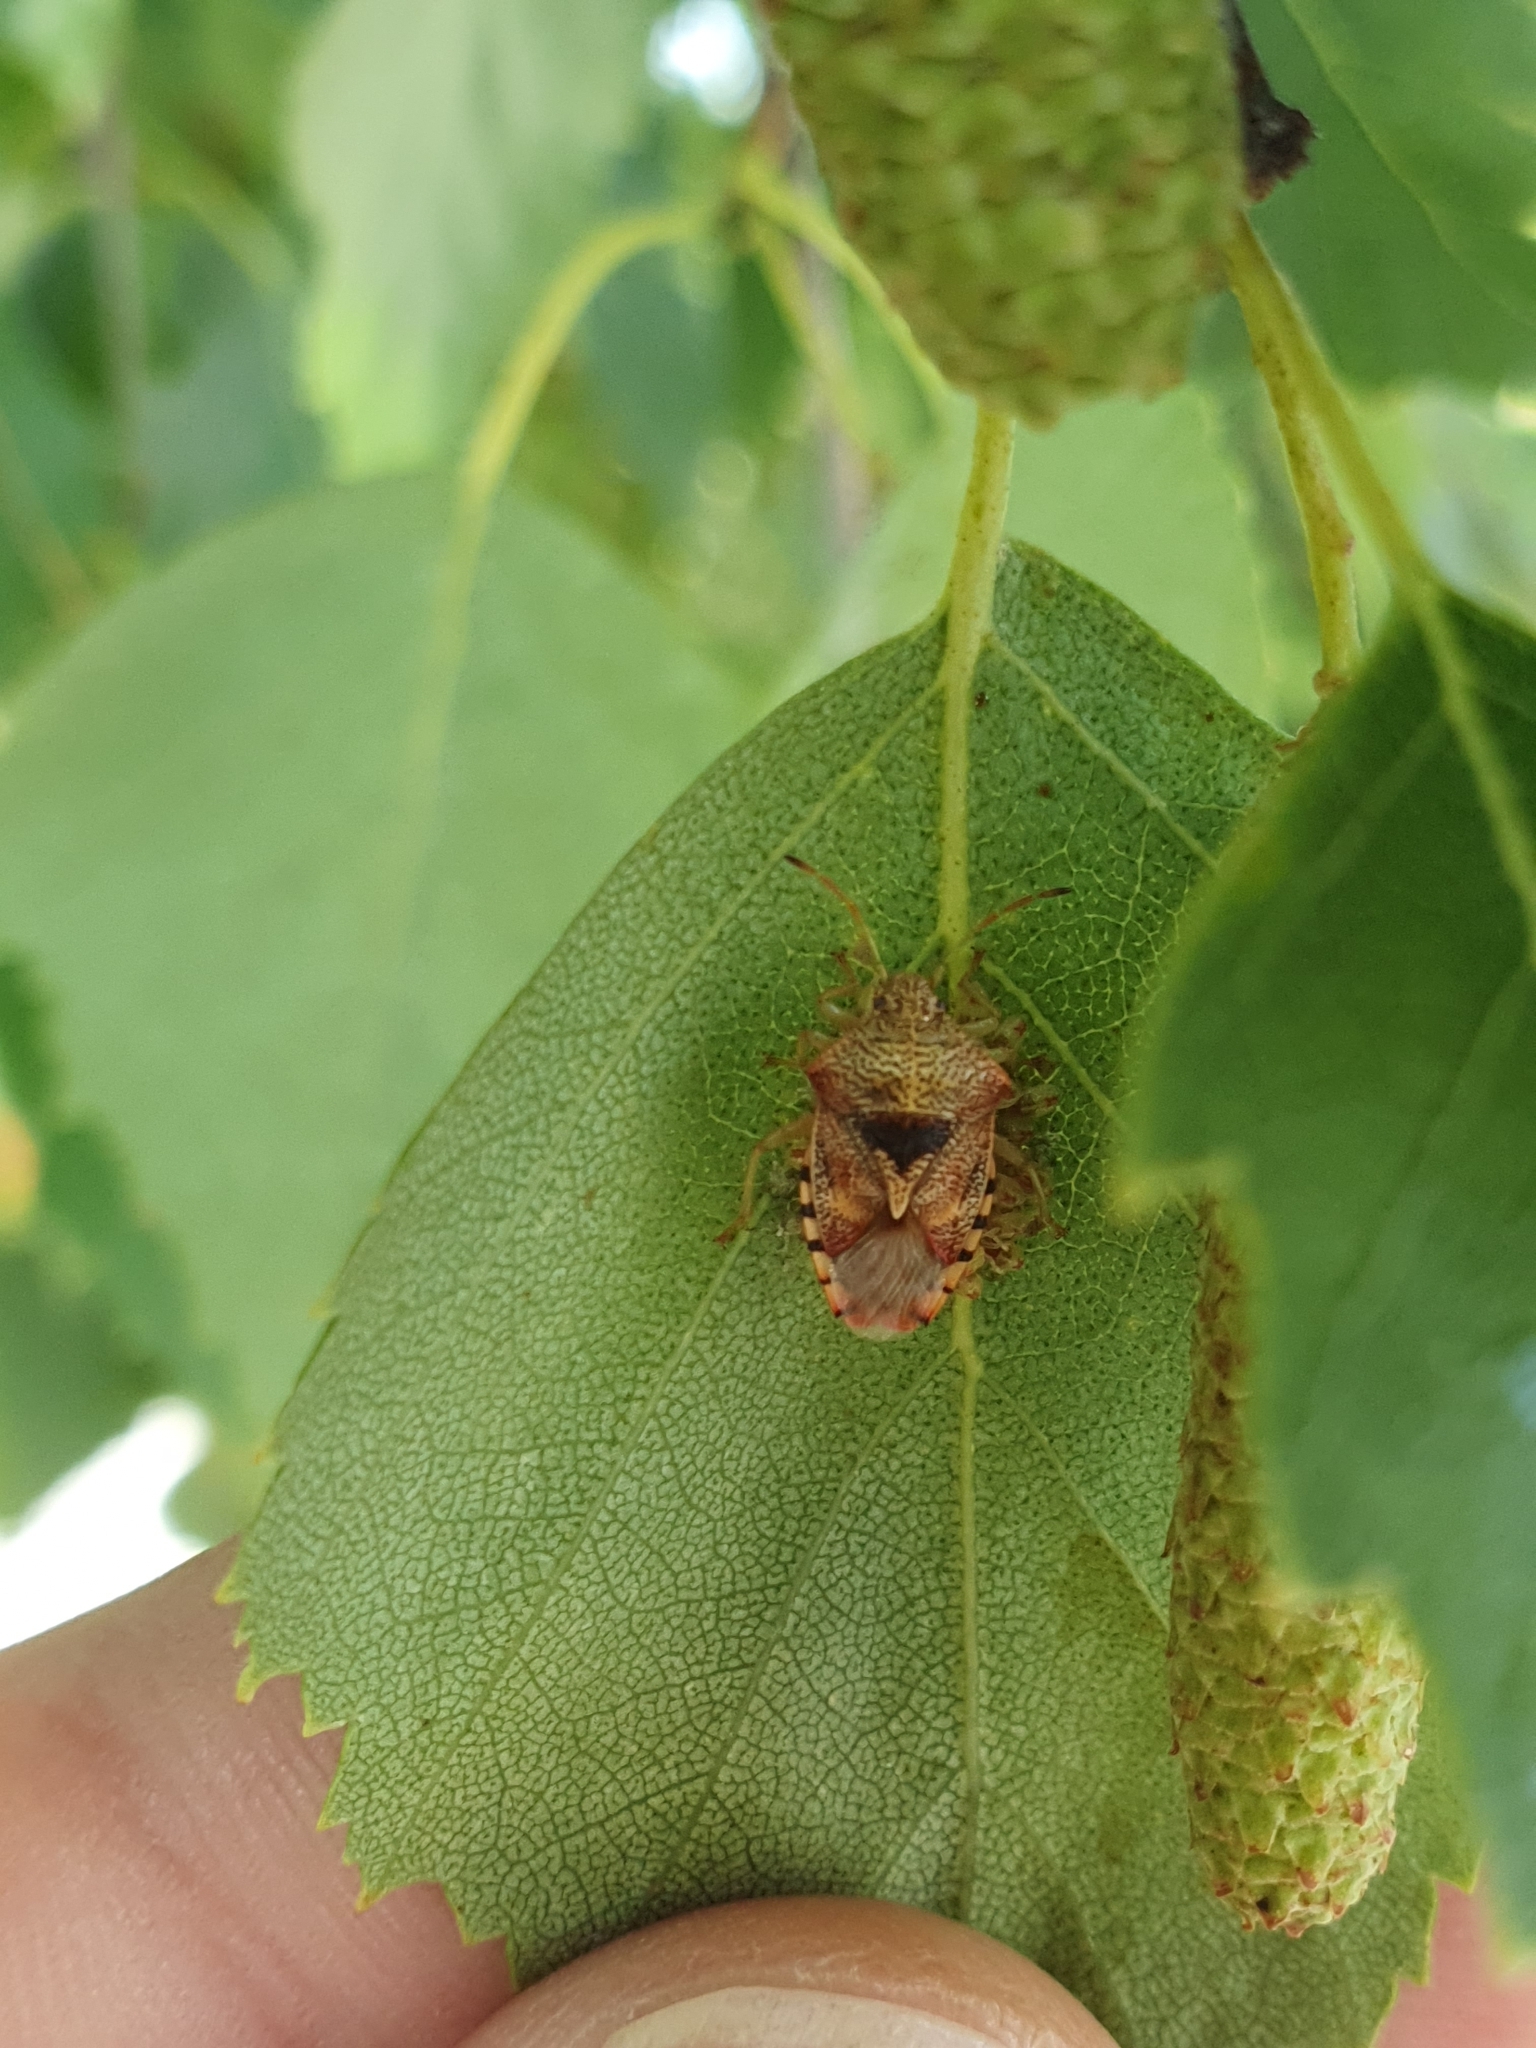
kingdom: Animalia
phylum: Arthropoda
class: Insecta
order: Hemiptera
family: Acanthosomatidae
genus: Elasmucha
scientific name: Elasmucha grisea
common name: Parent bug
